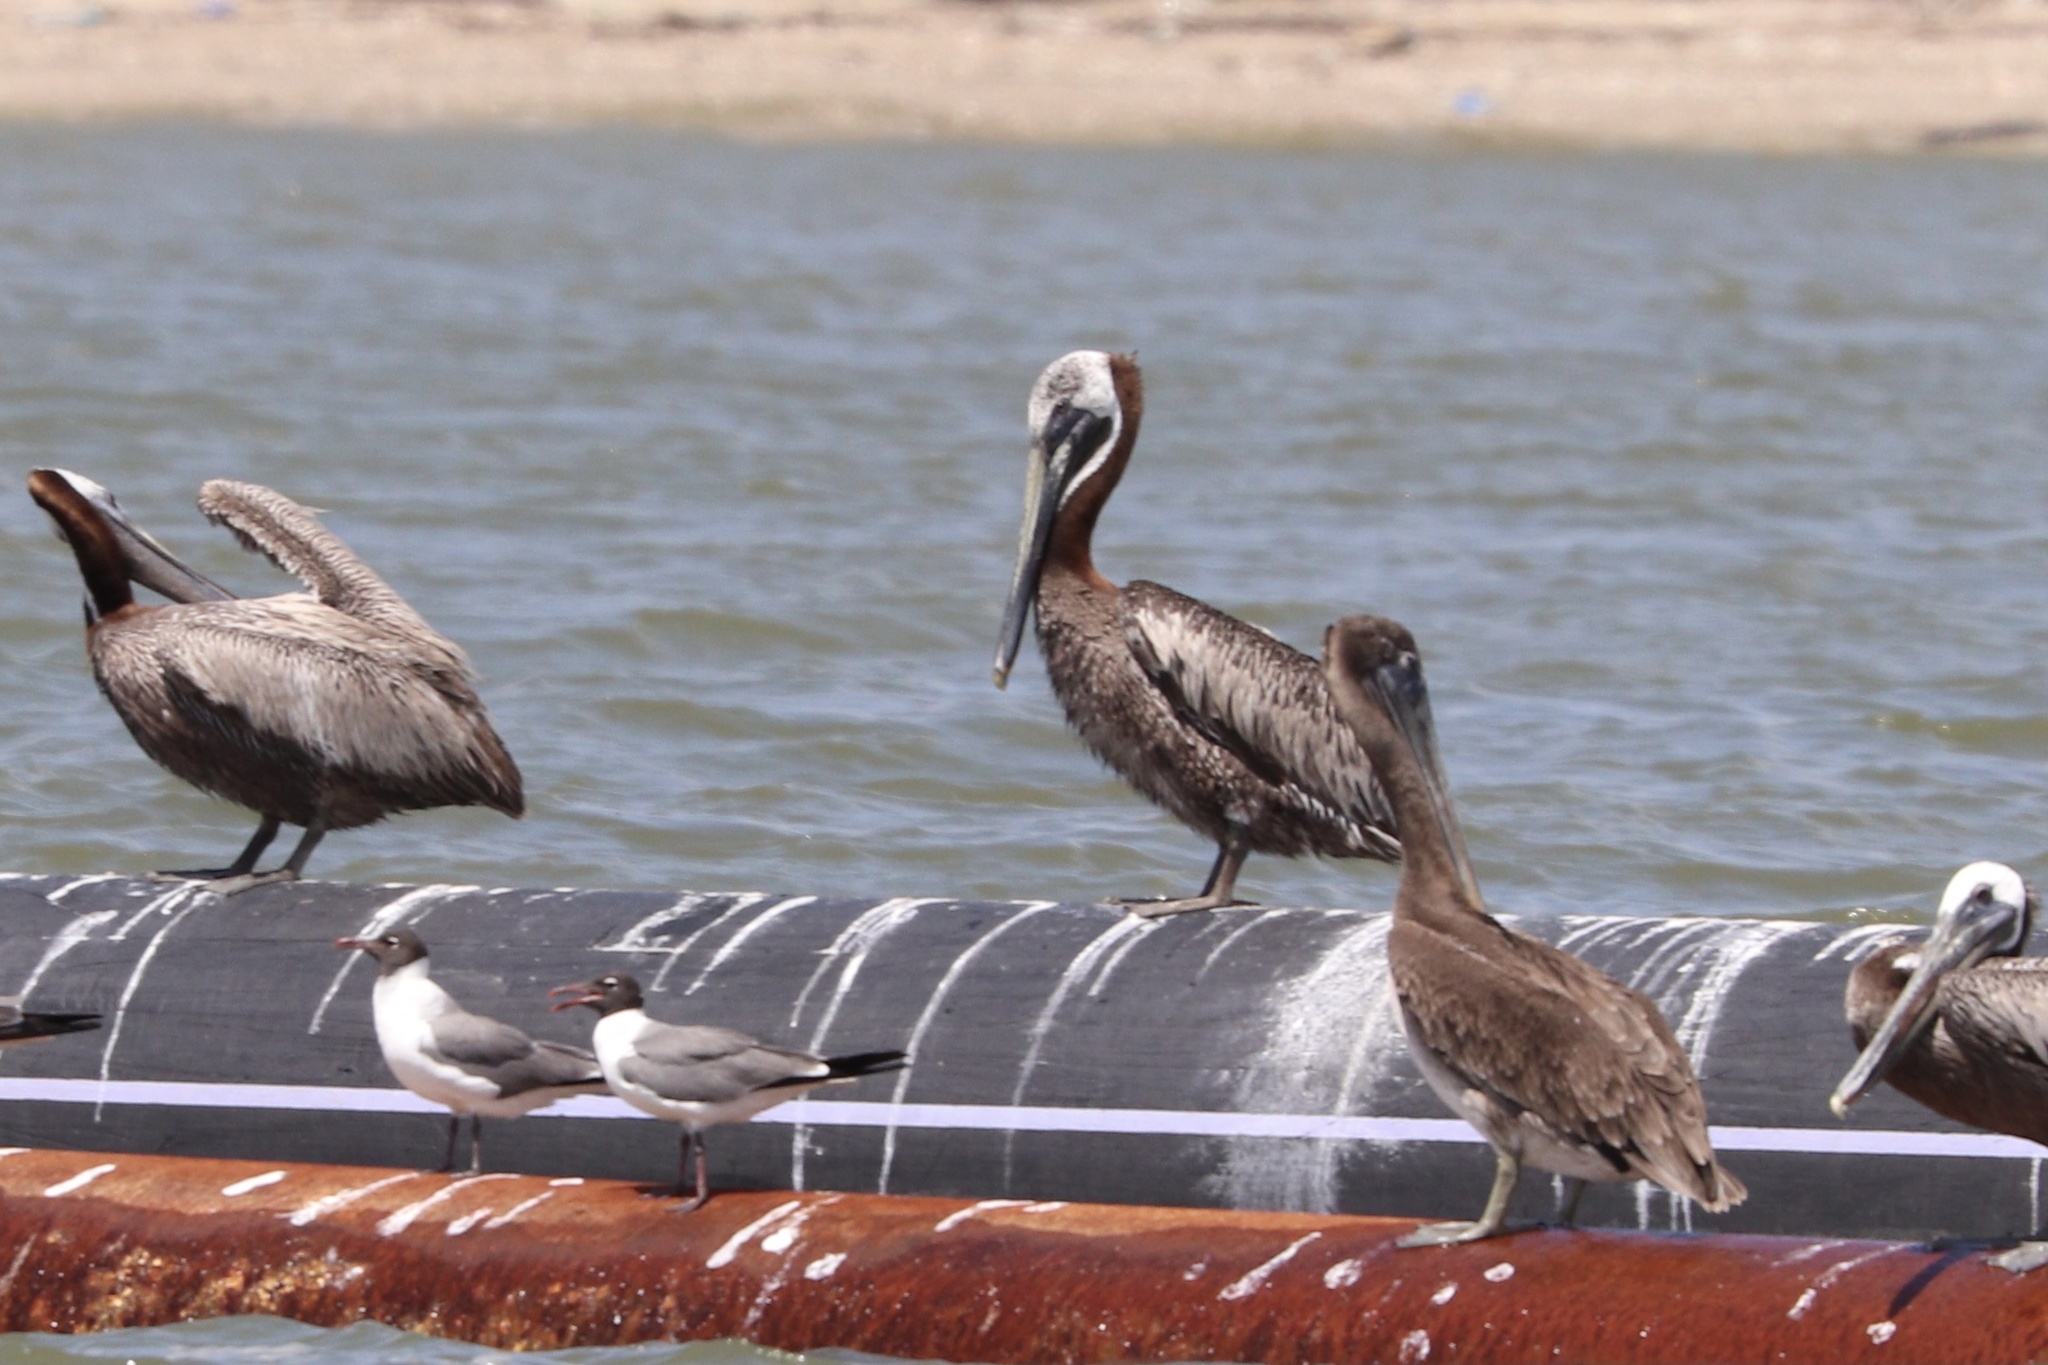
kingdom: Animalia
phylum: Chordata
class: Aves
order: Pelecaniformes
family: Pelecanidae
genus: Pelecanus
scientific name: Pelecanus occidentalis
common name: Brown pelican
